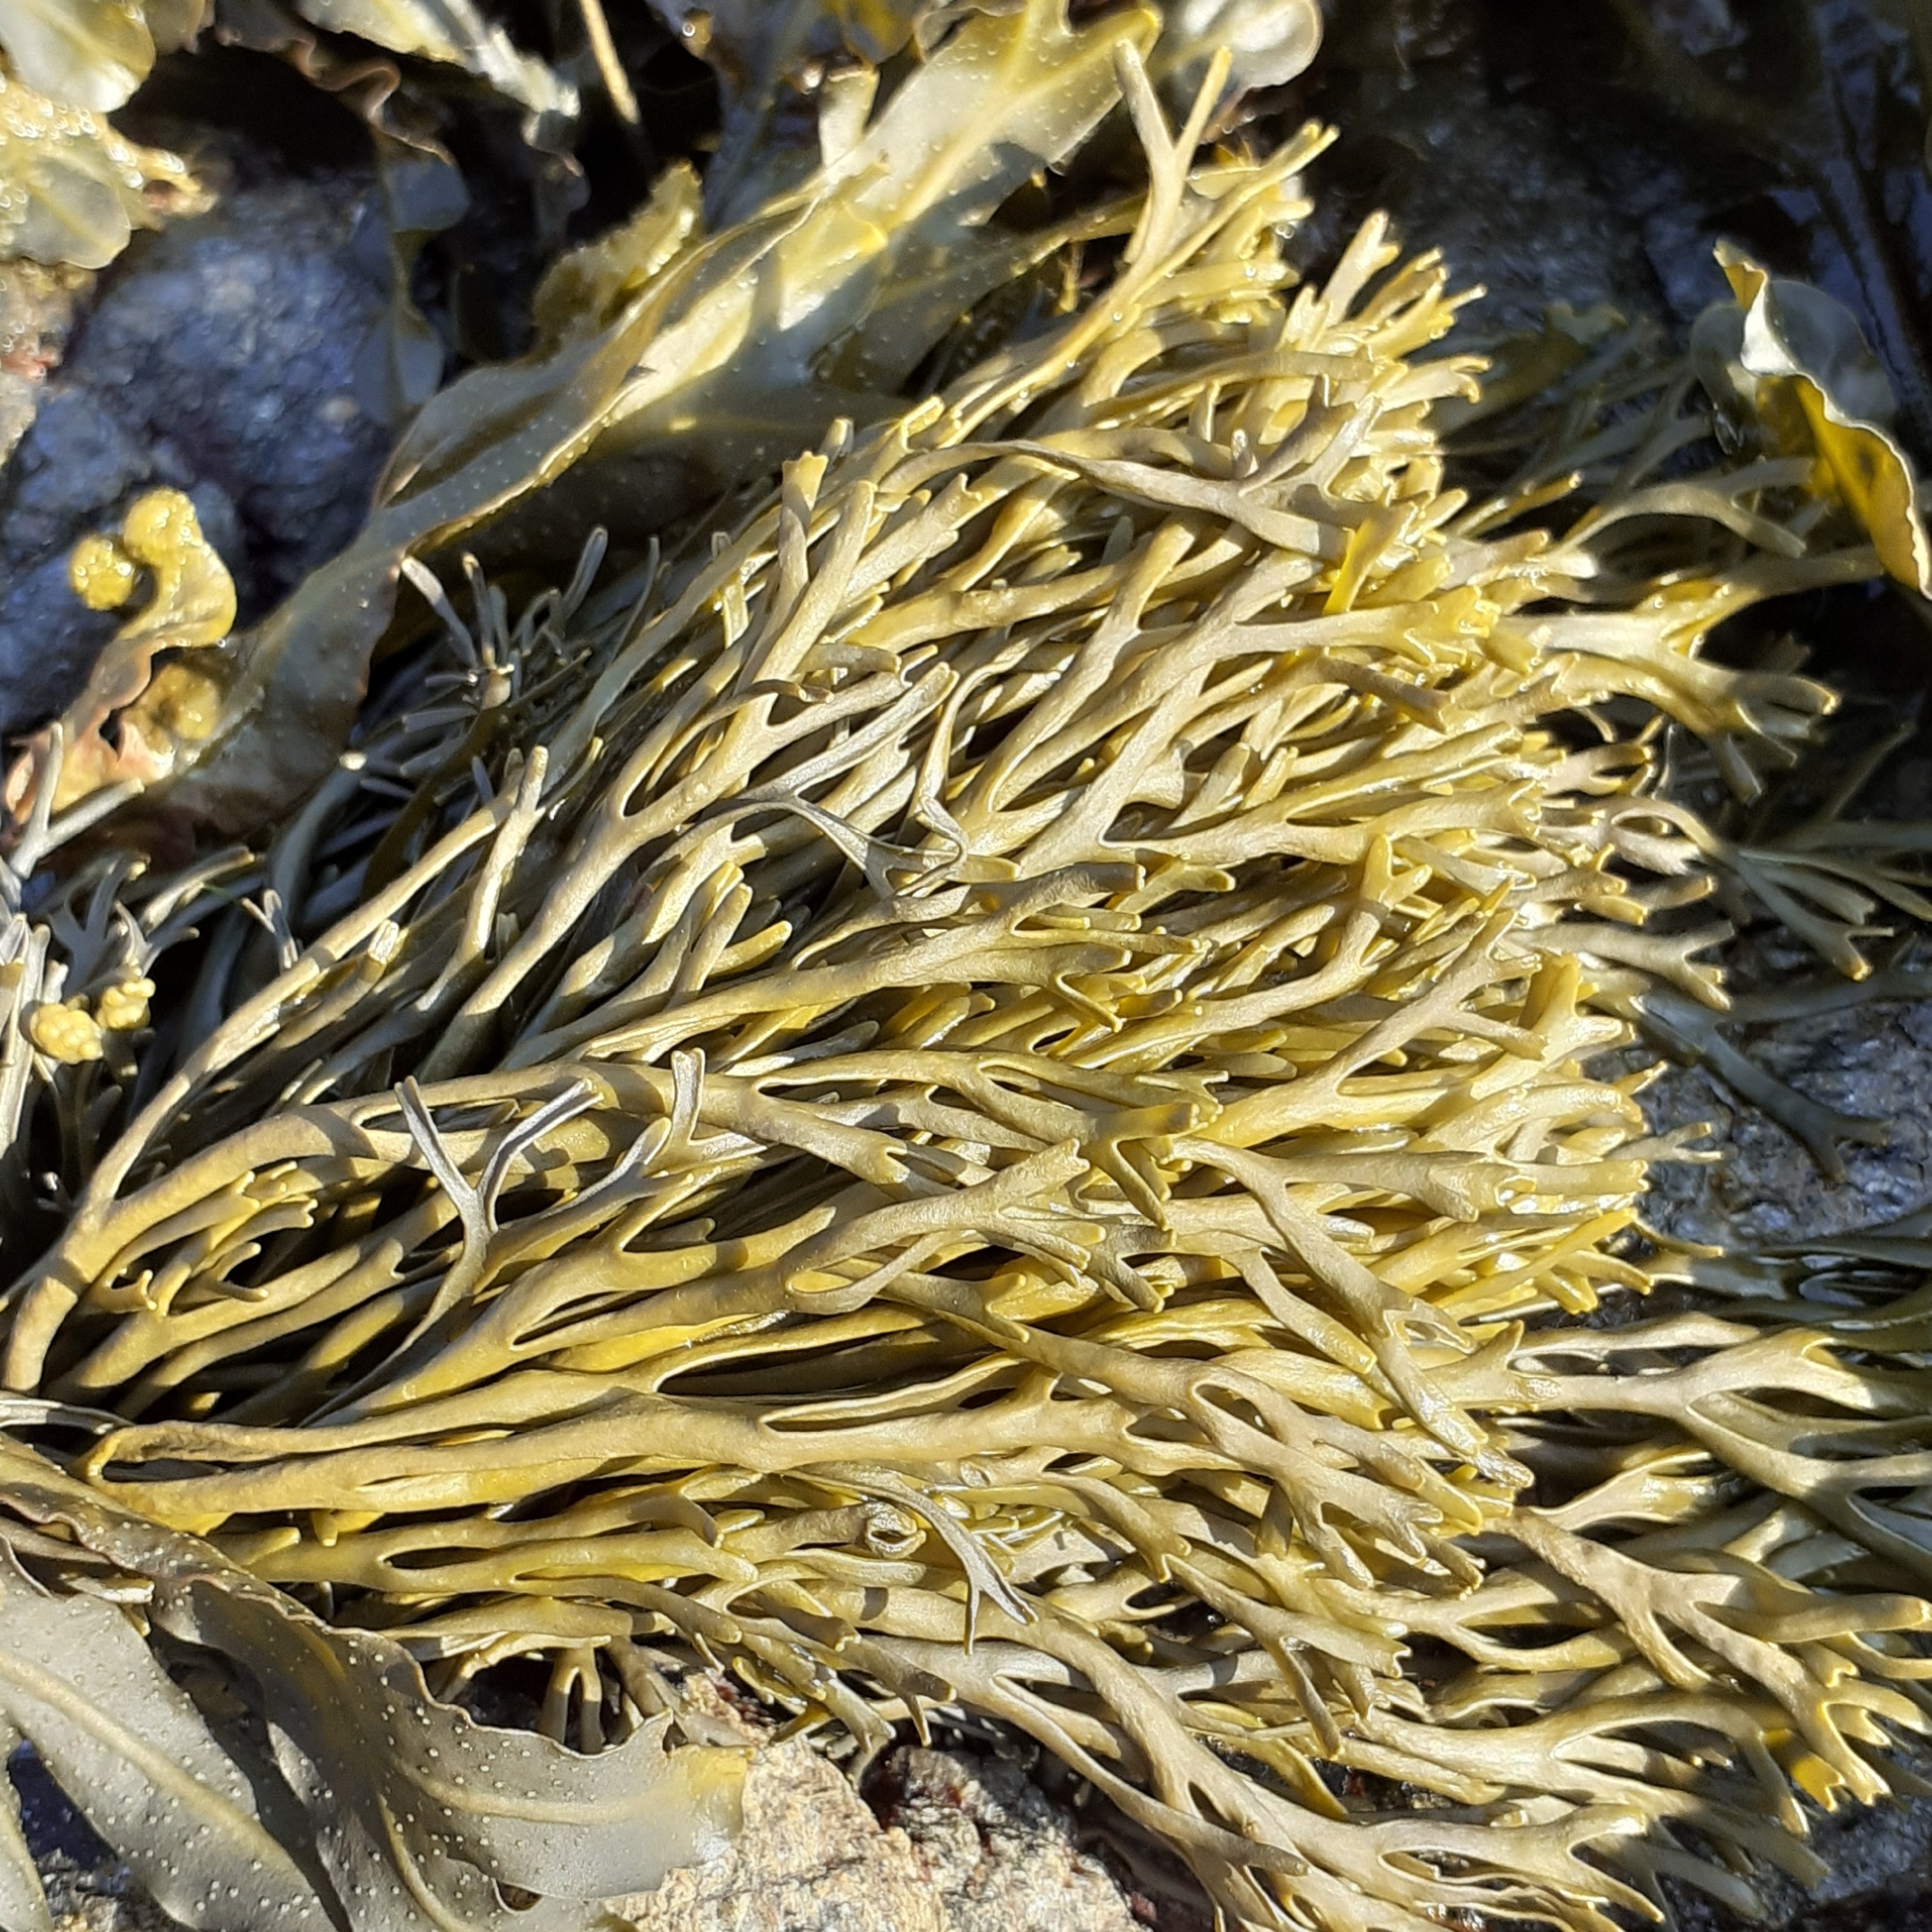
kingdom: Chromista
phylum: Ochrophyta
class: Phaeophyceae
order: Fucales
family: Fucaceae
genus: Pelvetia
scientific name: Pelvetia canaliculata
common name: Channelled wrack
